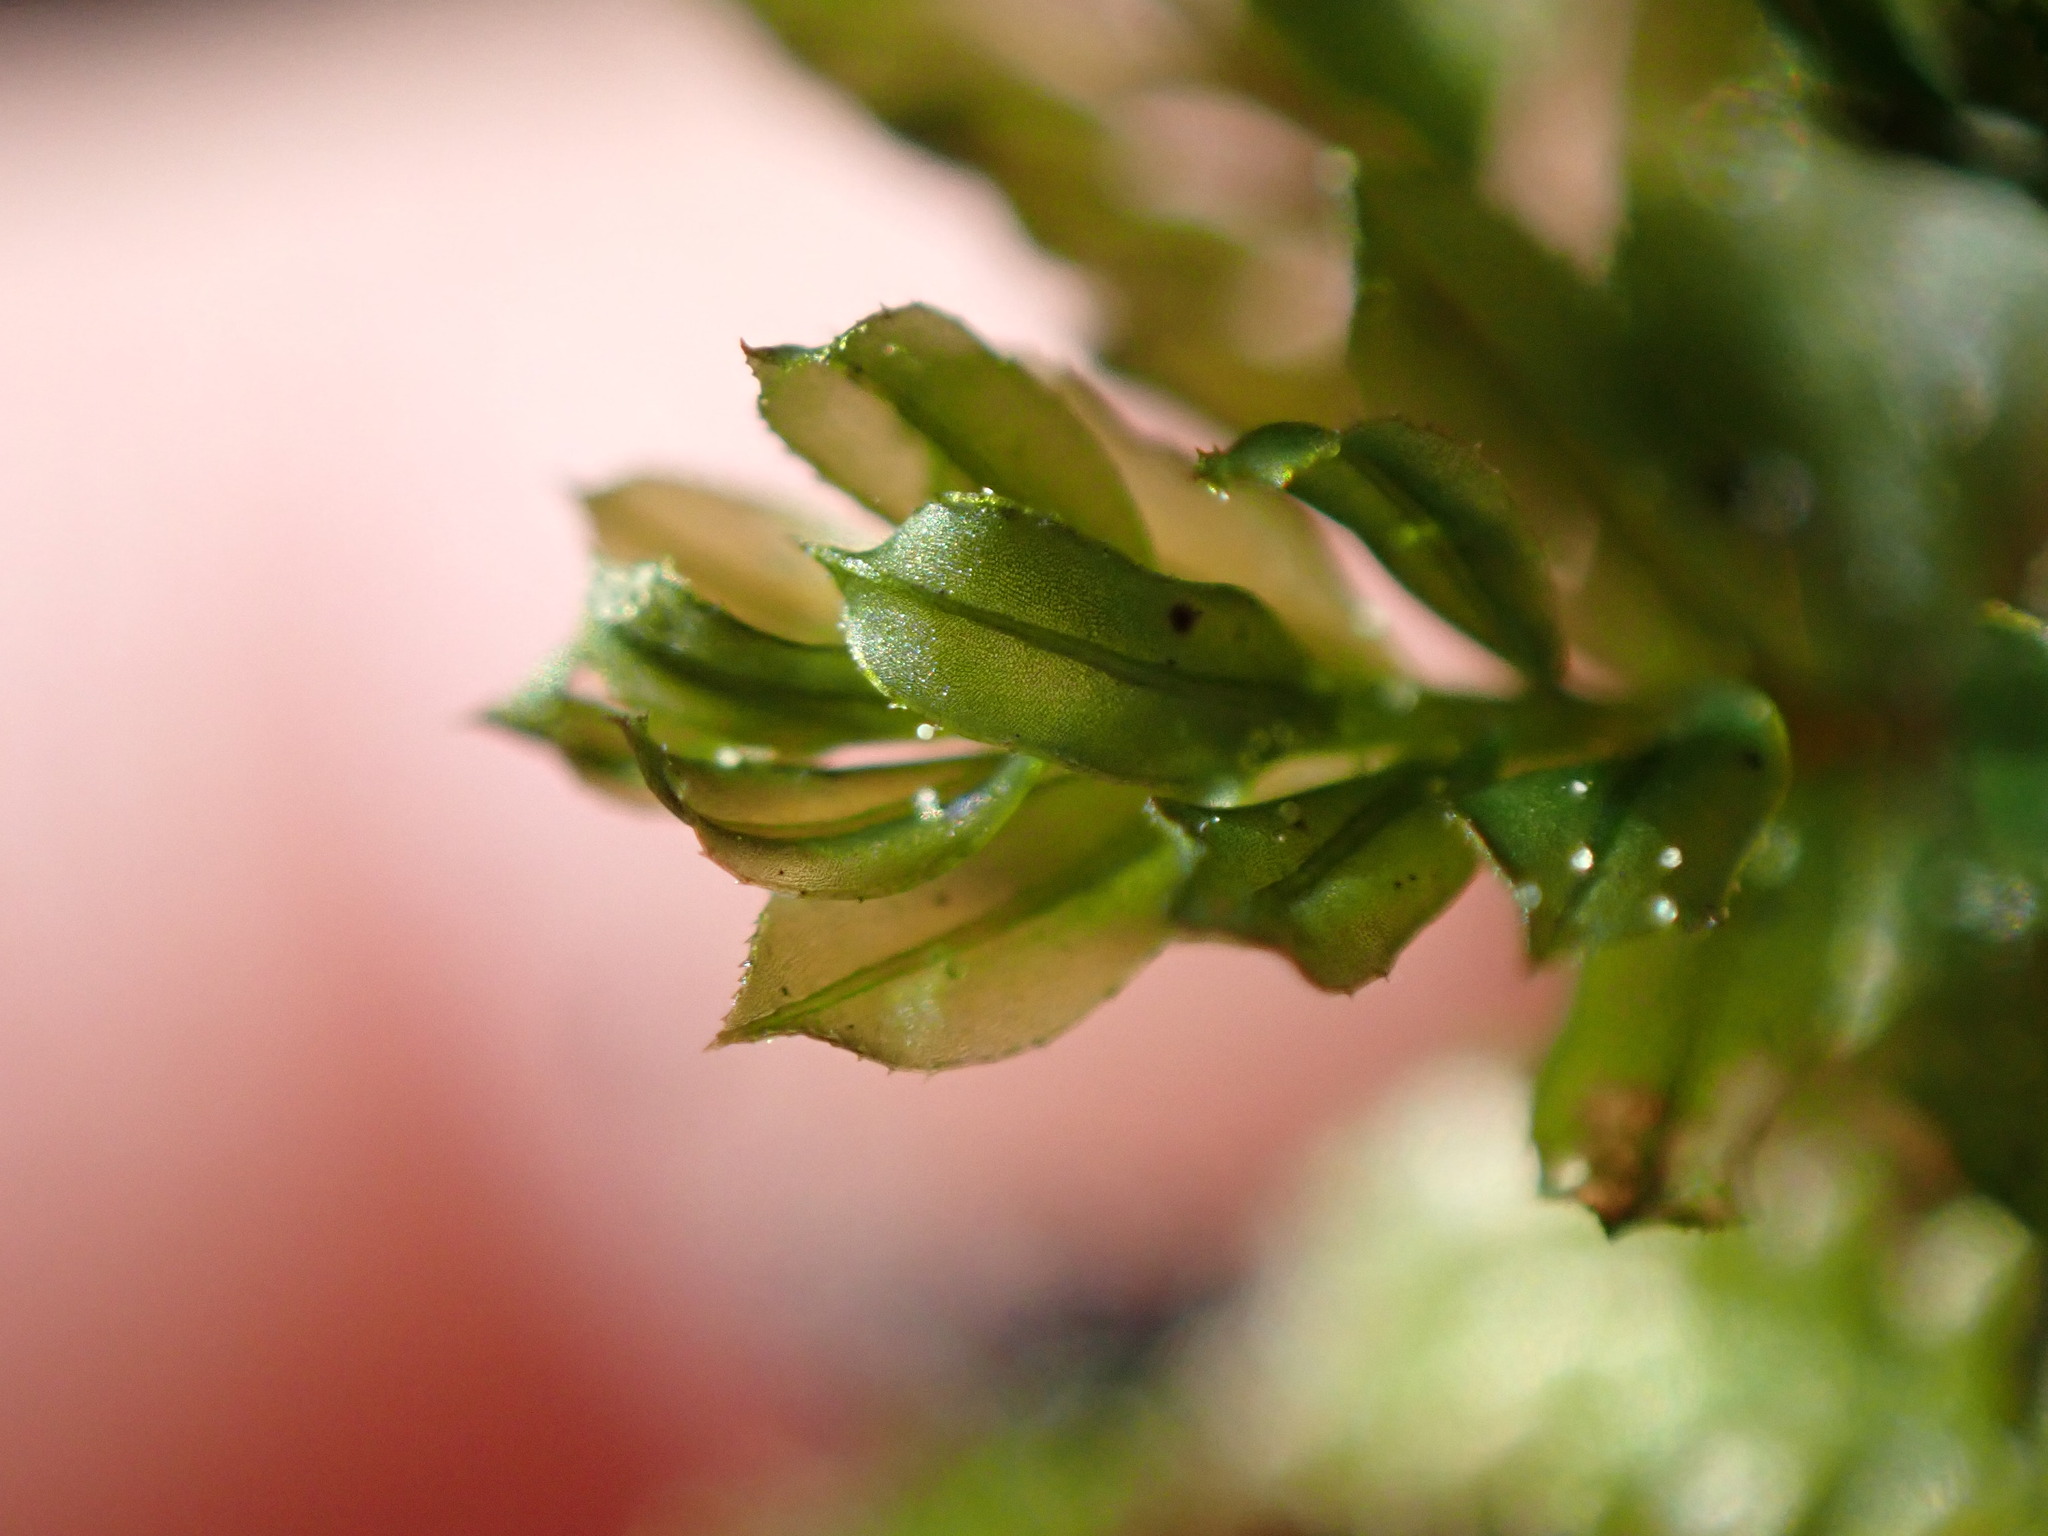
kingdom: Plantae
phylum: Bryophyta
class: Bryopsida
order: Bryales
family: Mniaceae
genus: Mnium
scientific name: Mnium spinulosum
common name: Red-mouthed leafy moss
